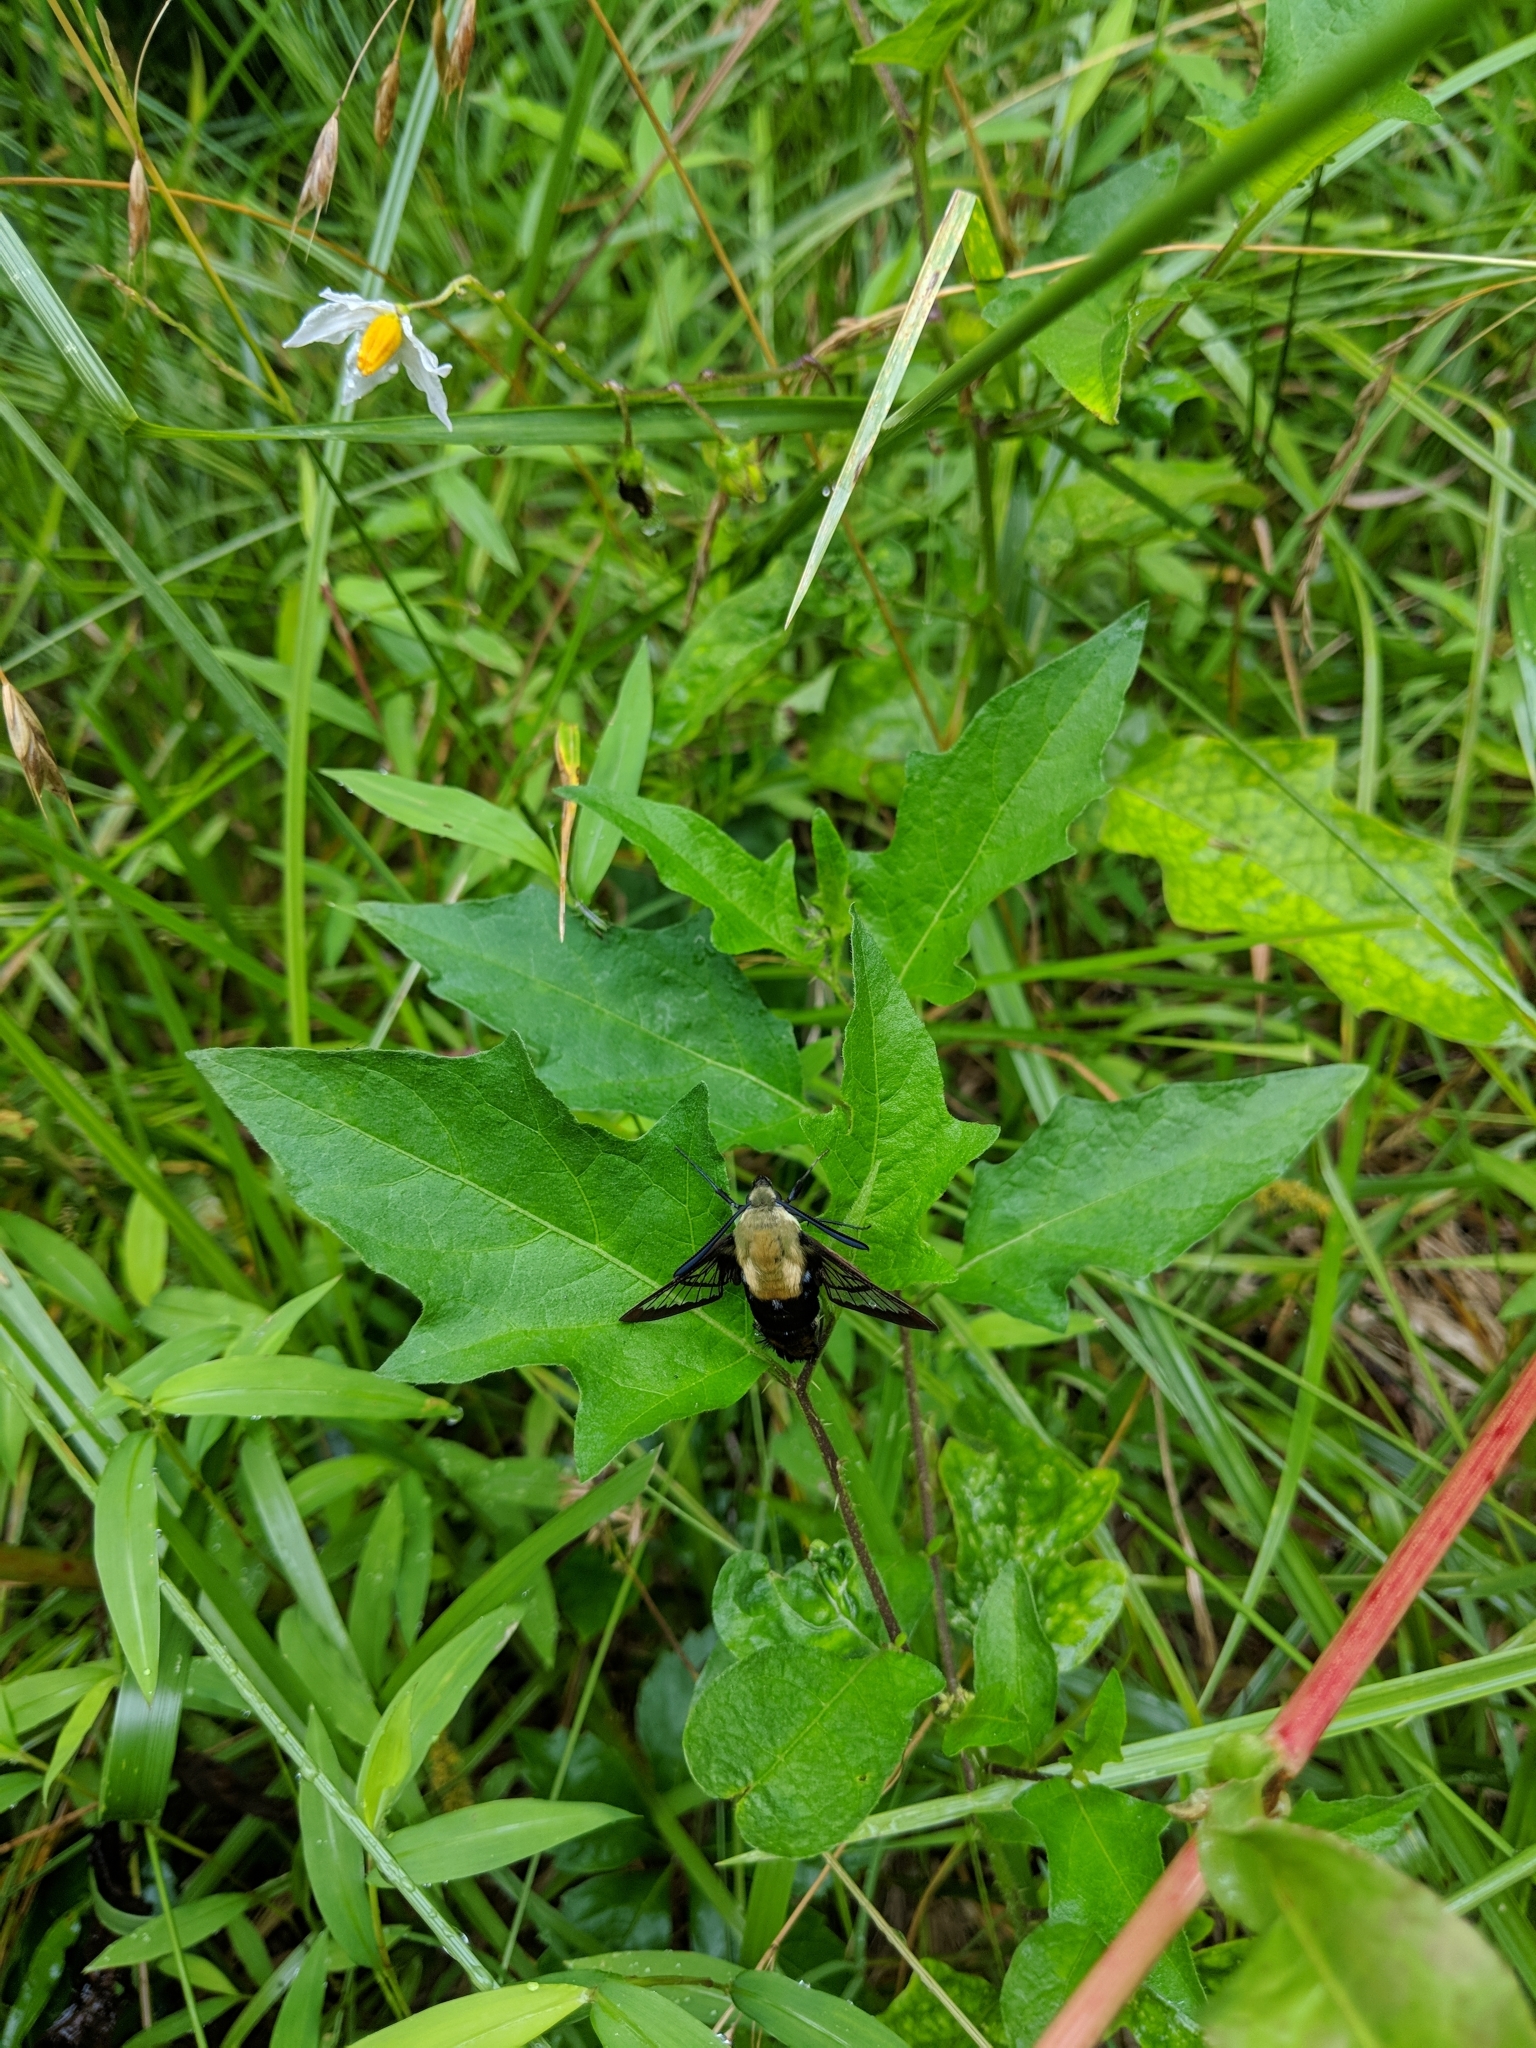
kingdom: Animalia
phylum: Arthropoda
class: Insecta
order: Lepidoptera
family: Sphingidae
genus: Hemaris
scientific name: Hemaris diffinis
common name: Bumblebee moth
